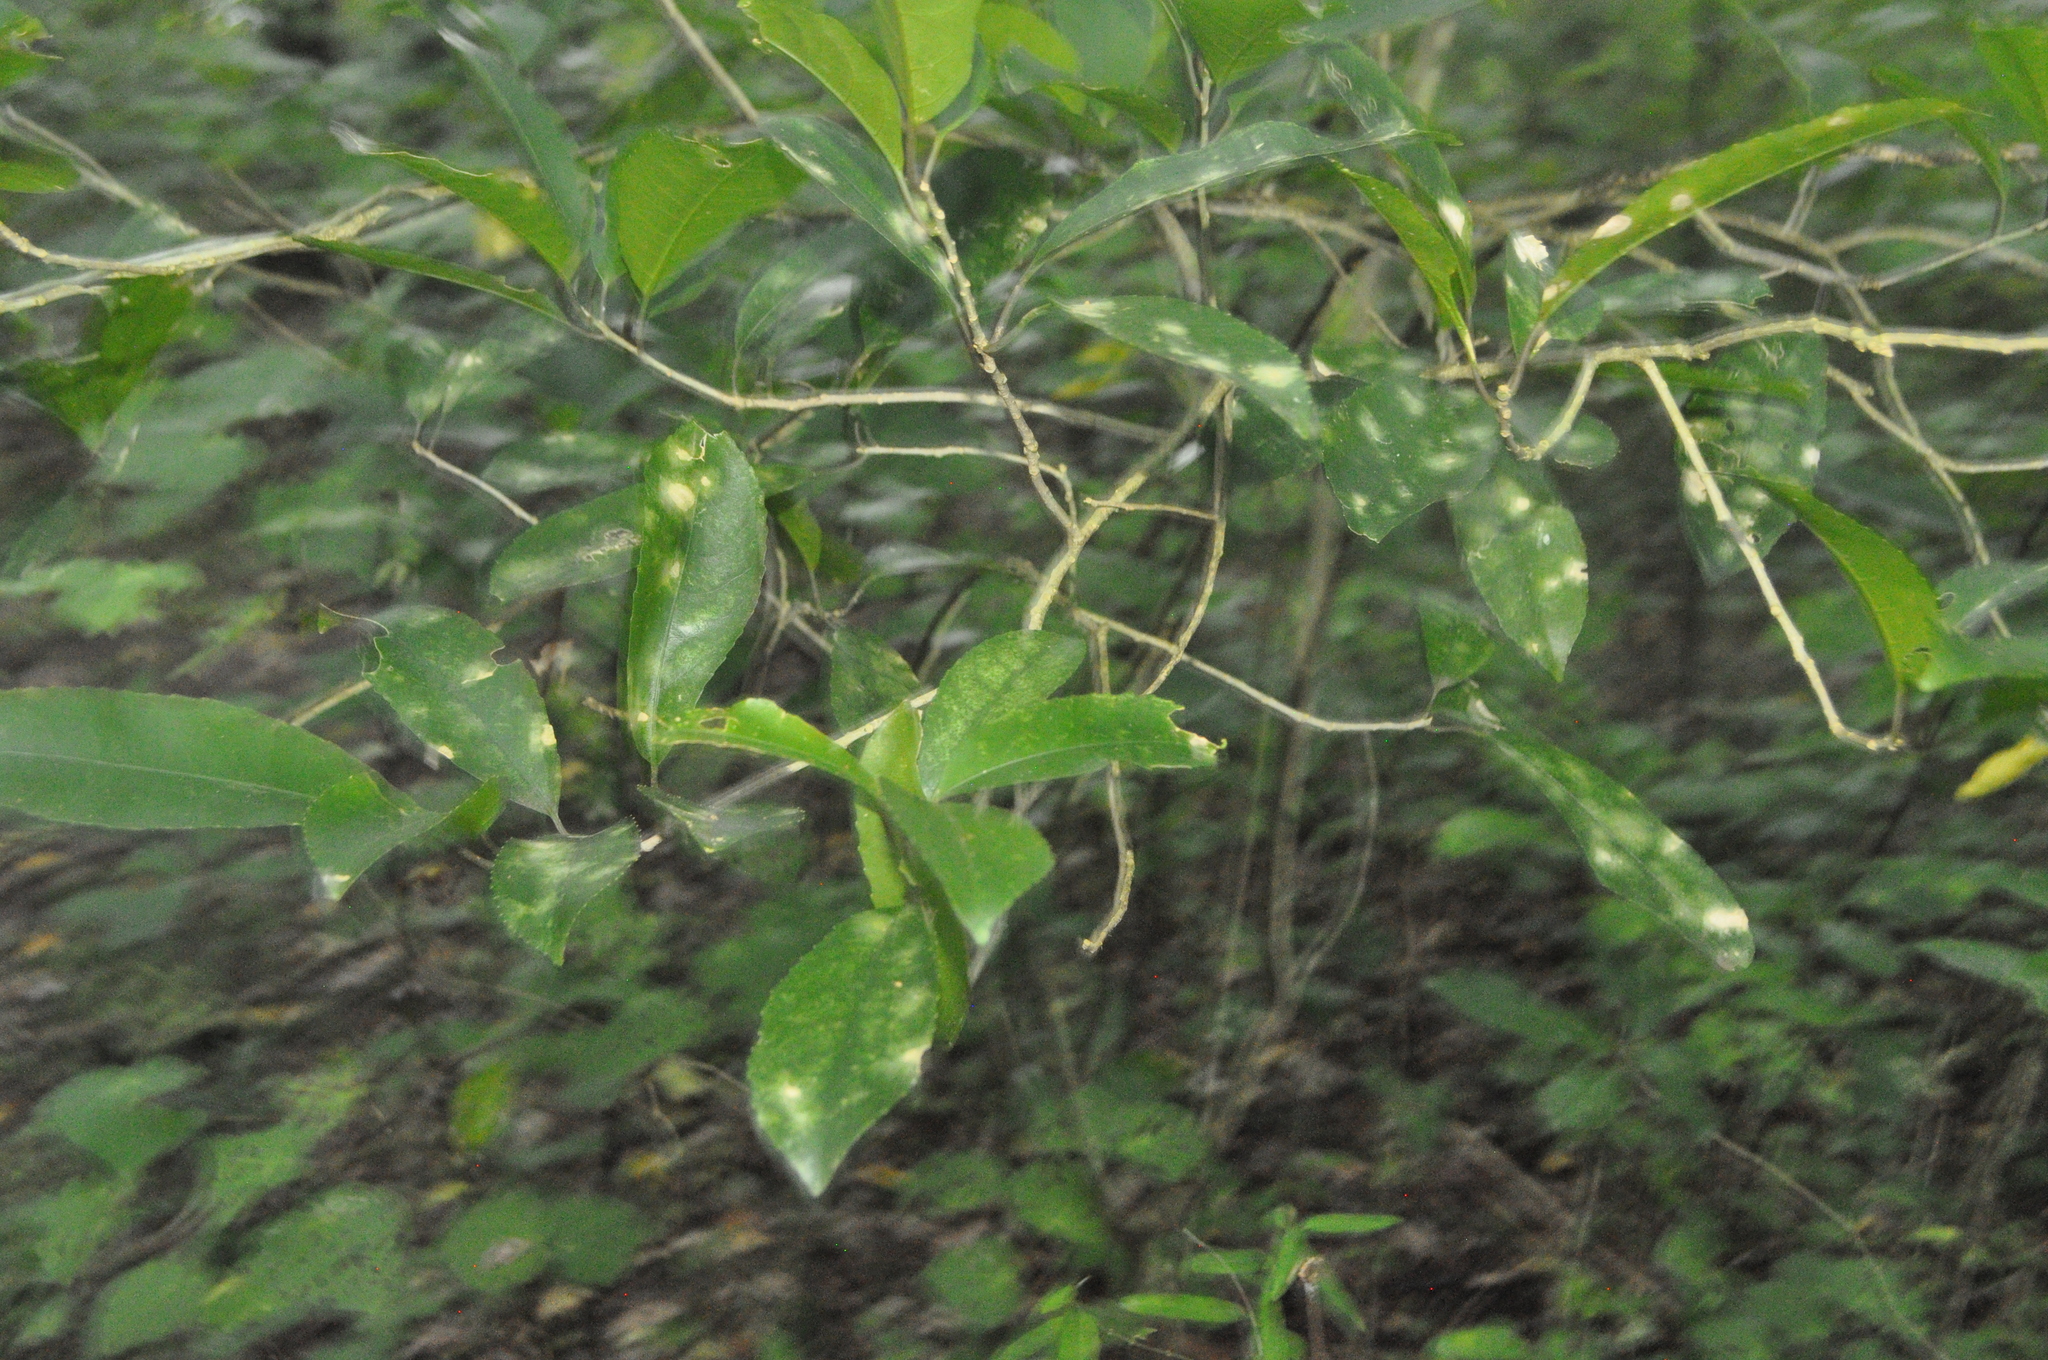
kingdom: Plantae
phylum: Tracheophyta
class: Magnoliopsida
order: Malpighiales
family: Violaceae
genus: Melicytus
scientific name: Melicytus ramiflorus
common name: Mahoe
